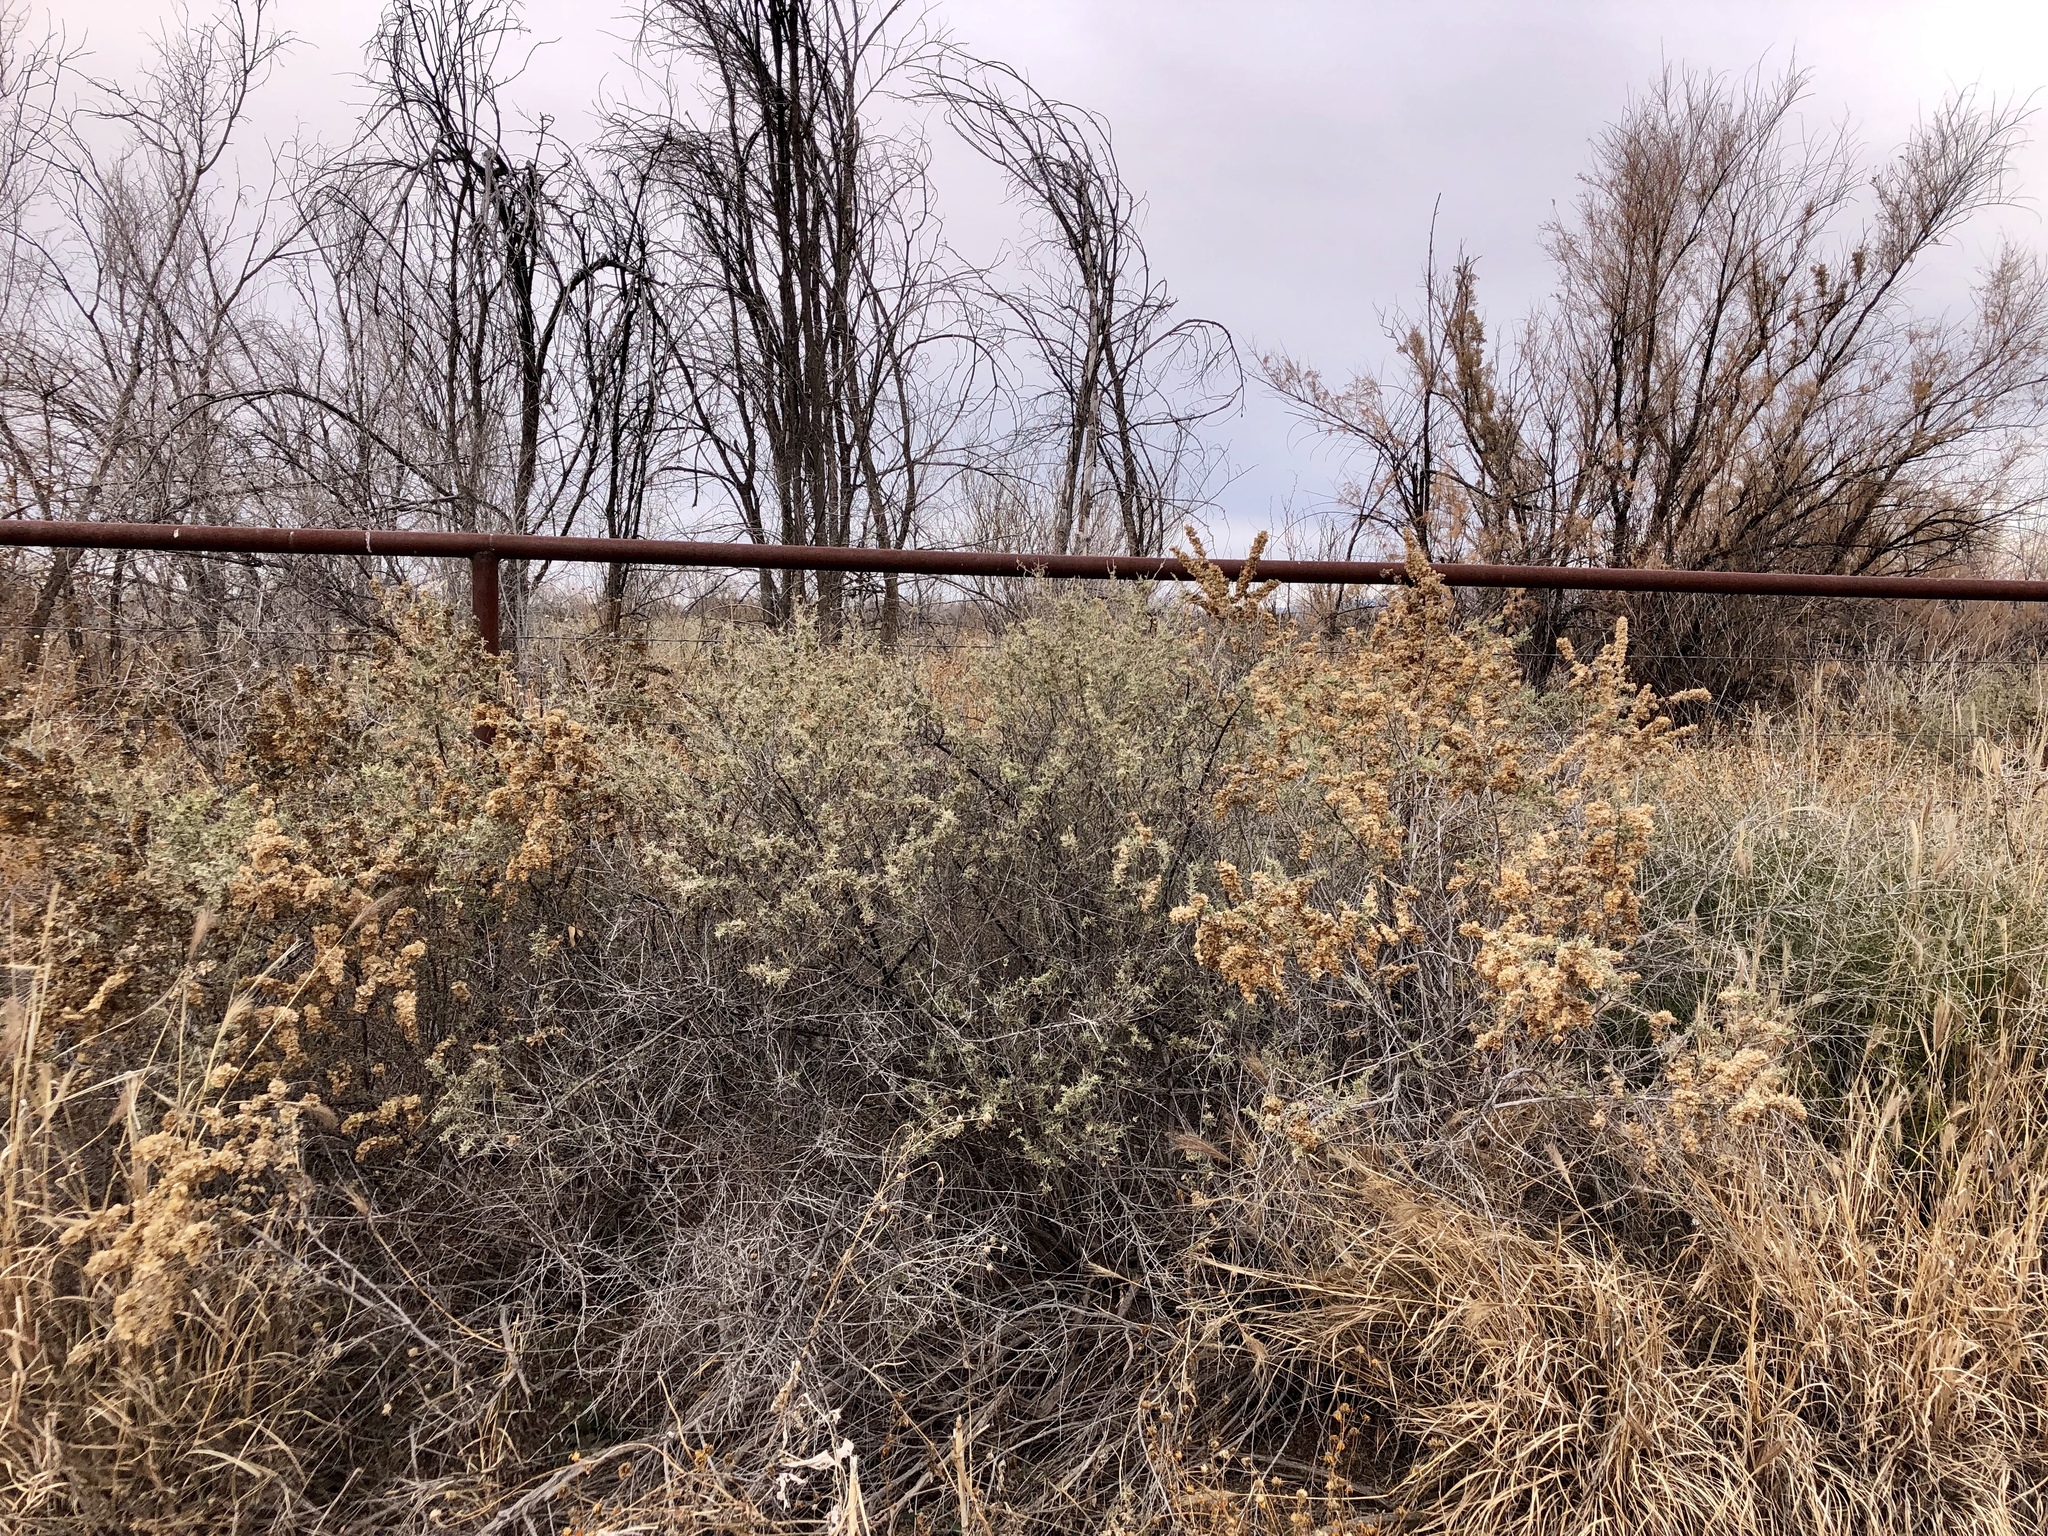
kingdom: Plantae
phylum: Tracheophyta
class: Magnoliopsida
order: Caryophyllales
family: Amaranthaceae
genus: Atriplex
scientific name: Atriplex canescens
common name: Four-wing saltbush
